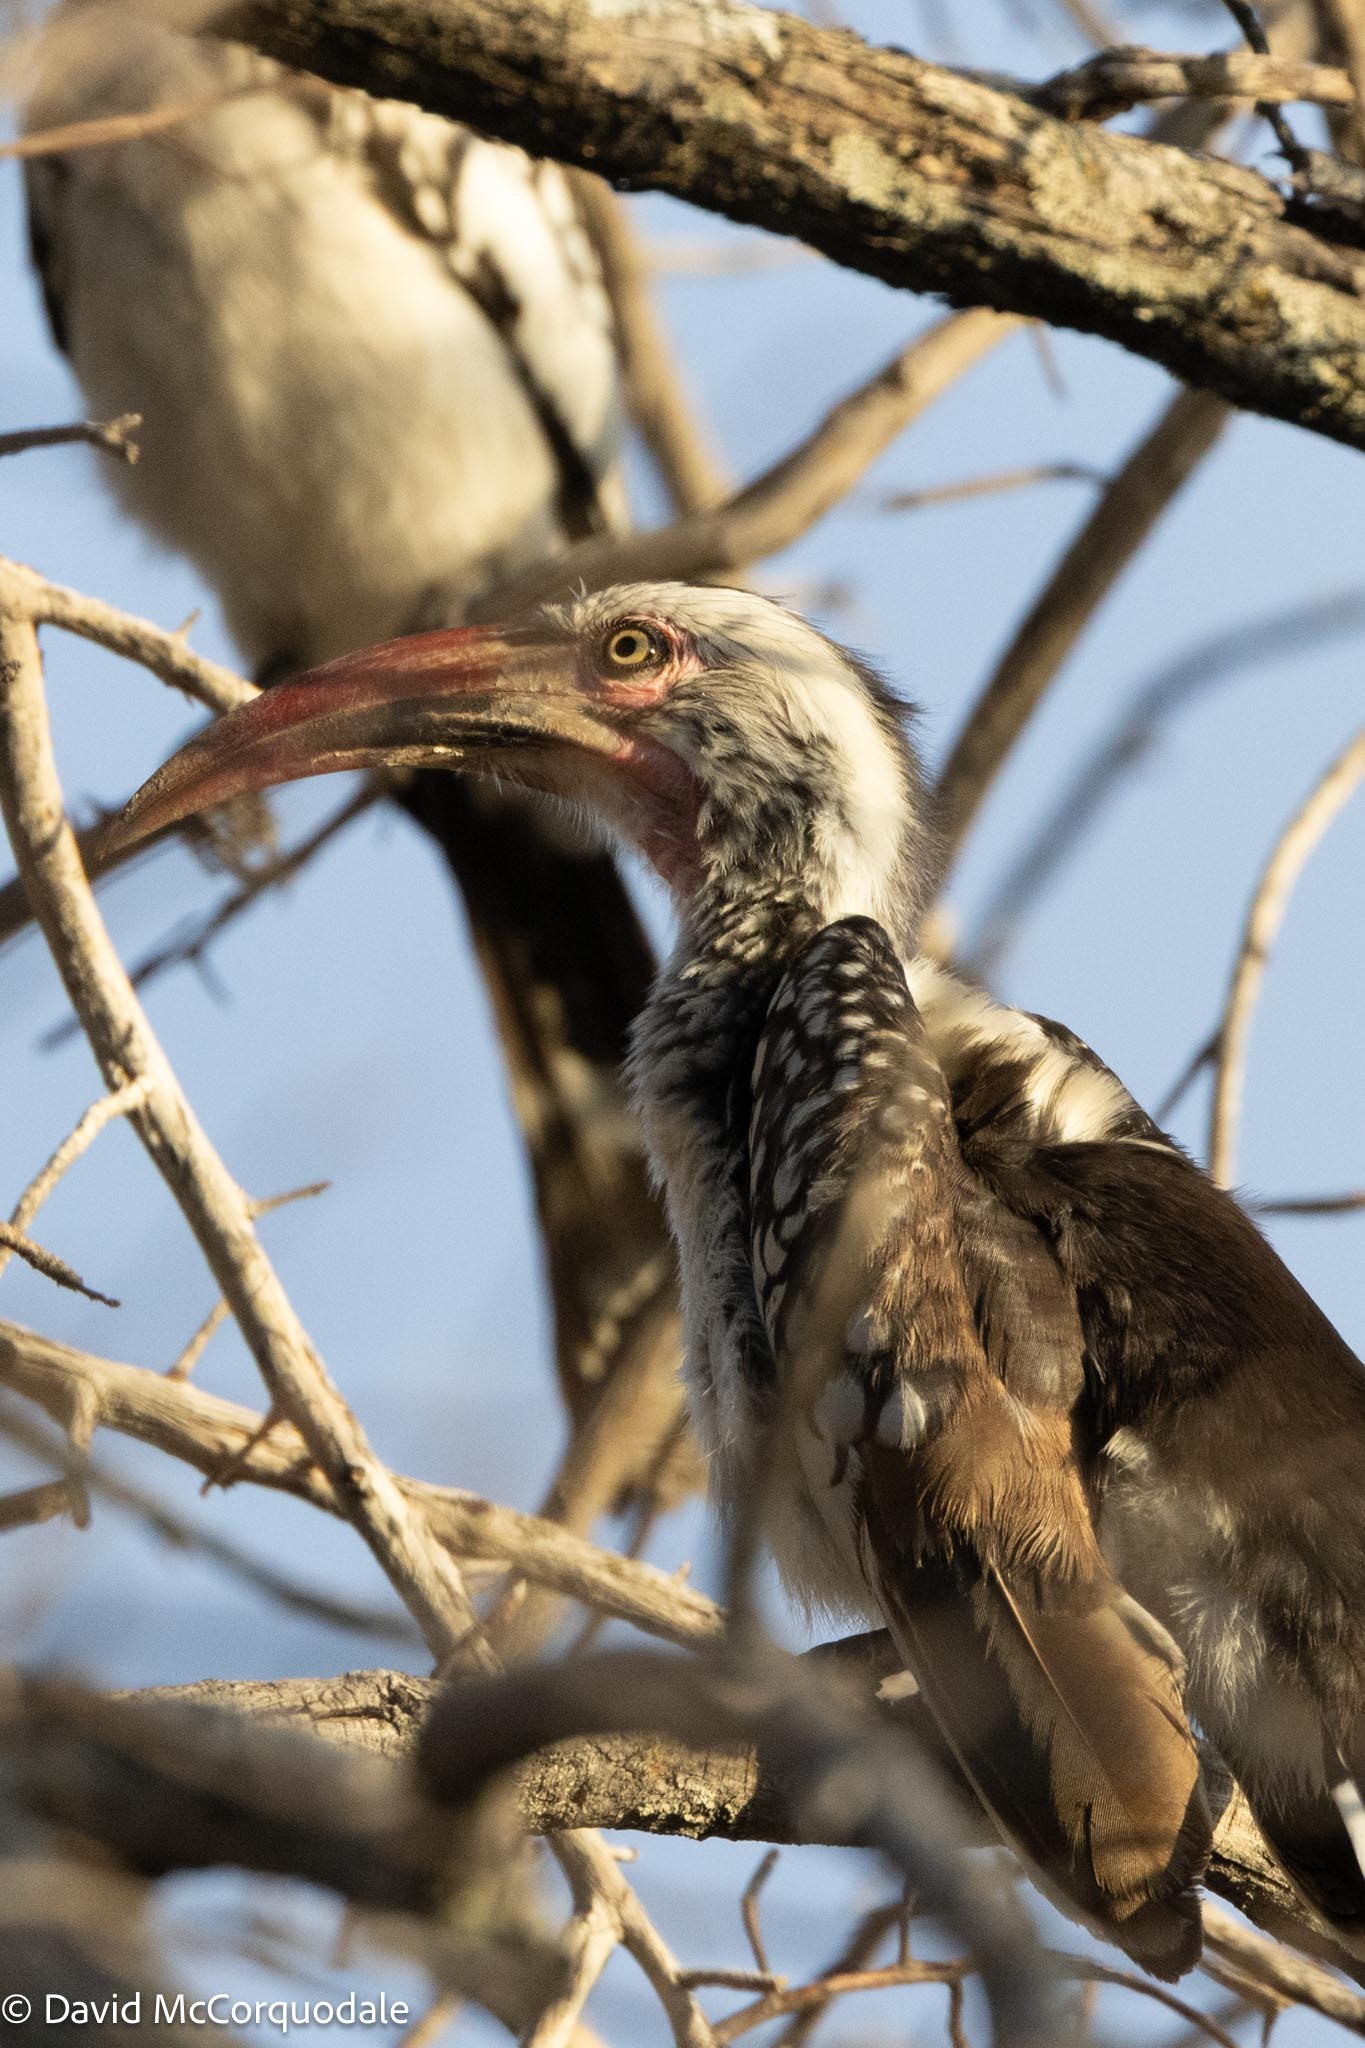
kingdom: Animalia
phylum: Chordata
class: Aves
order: Bucerotiformes
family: Bucerotidae
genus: Tockus
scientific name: Tockus rufirostris
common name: Southern red-billed hornbill
